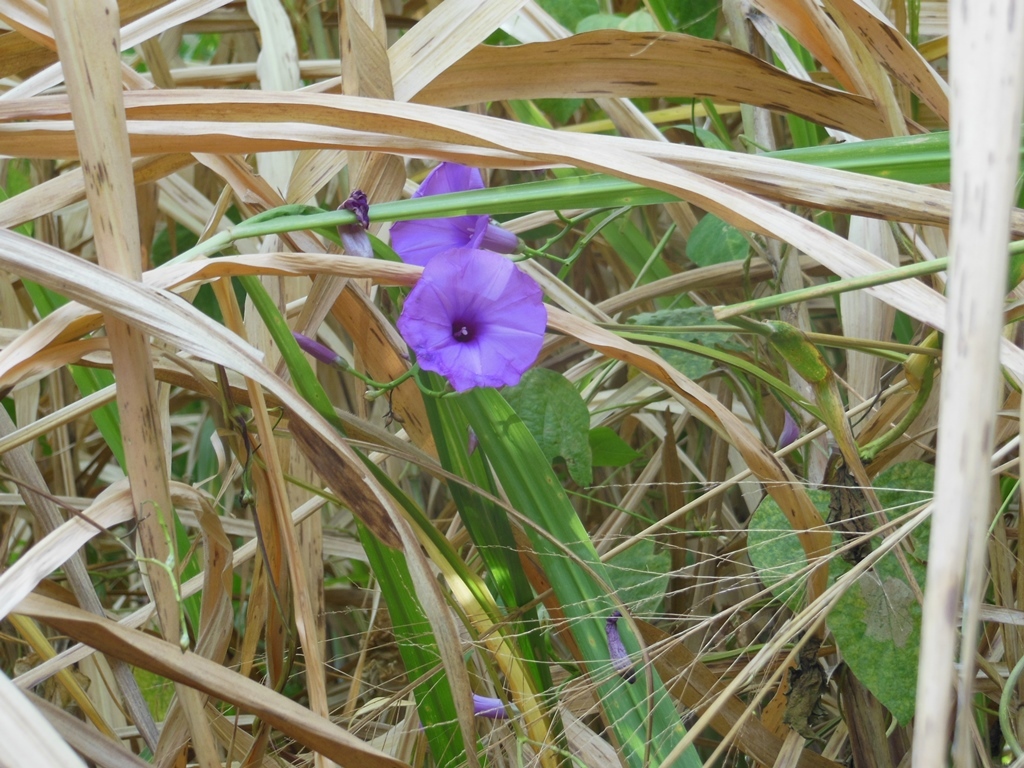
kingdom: Plantae
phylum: Tracheophyta
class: Magnoliopsida
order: Solanales
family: Convolvulaceae
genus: Ipomoea
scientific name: Ipomoea splendor-sylvae
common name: Morning glory
